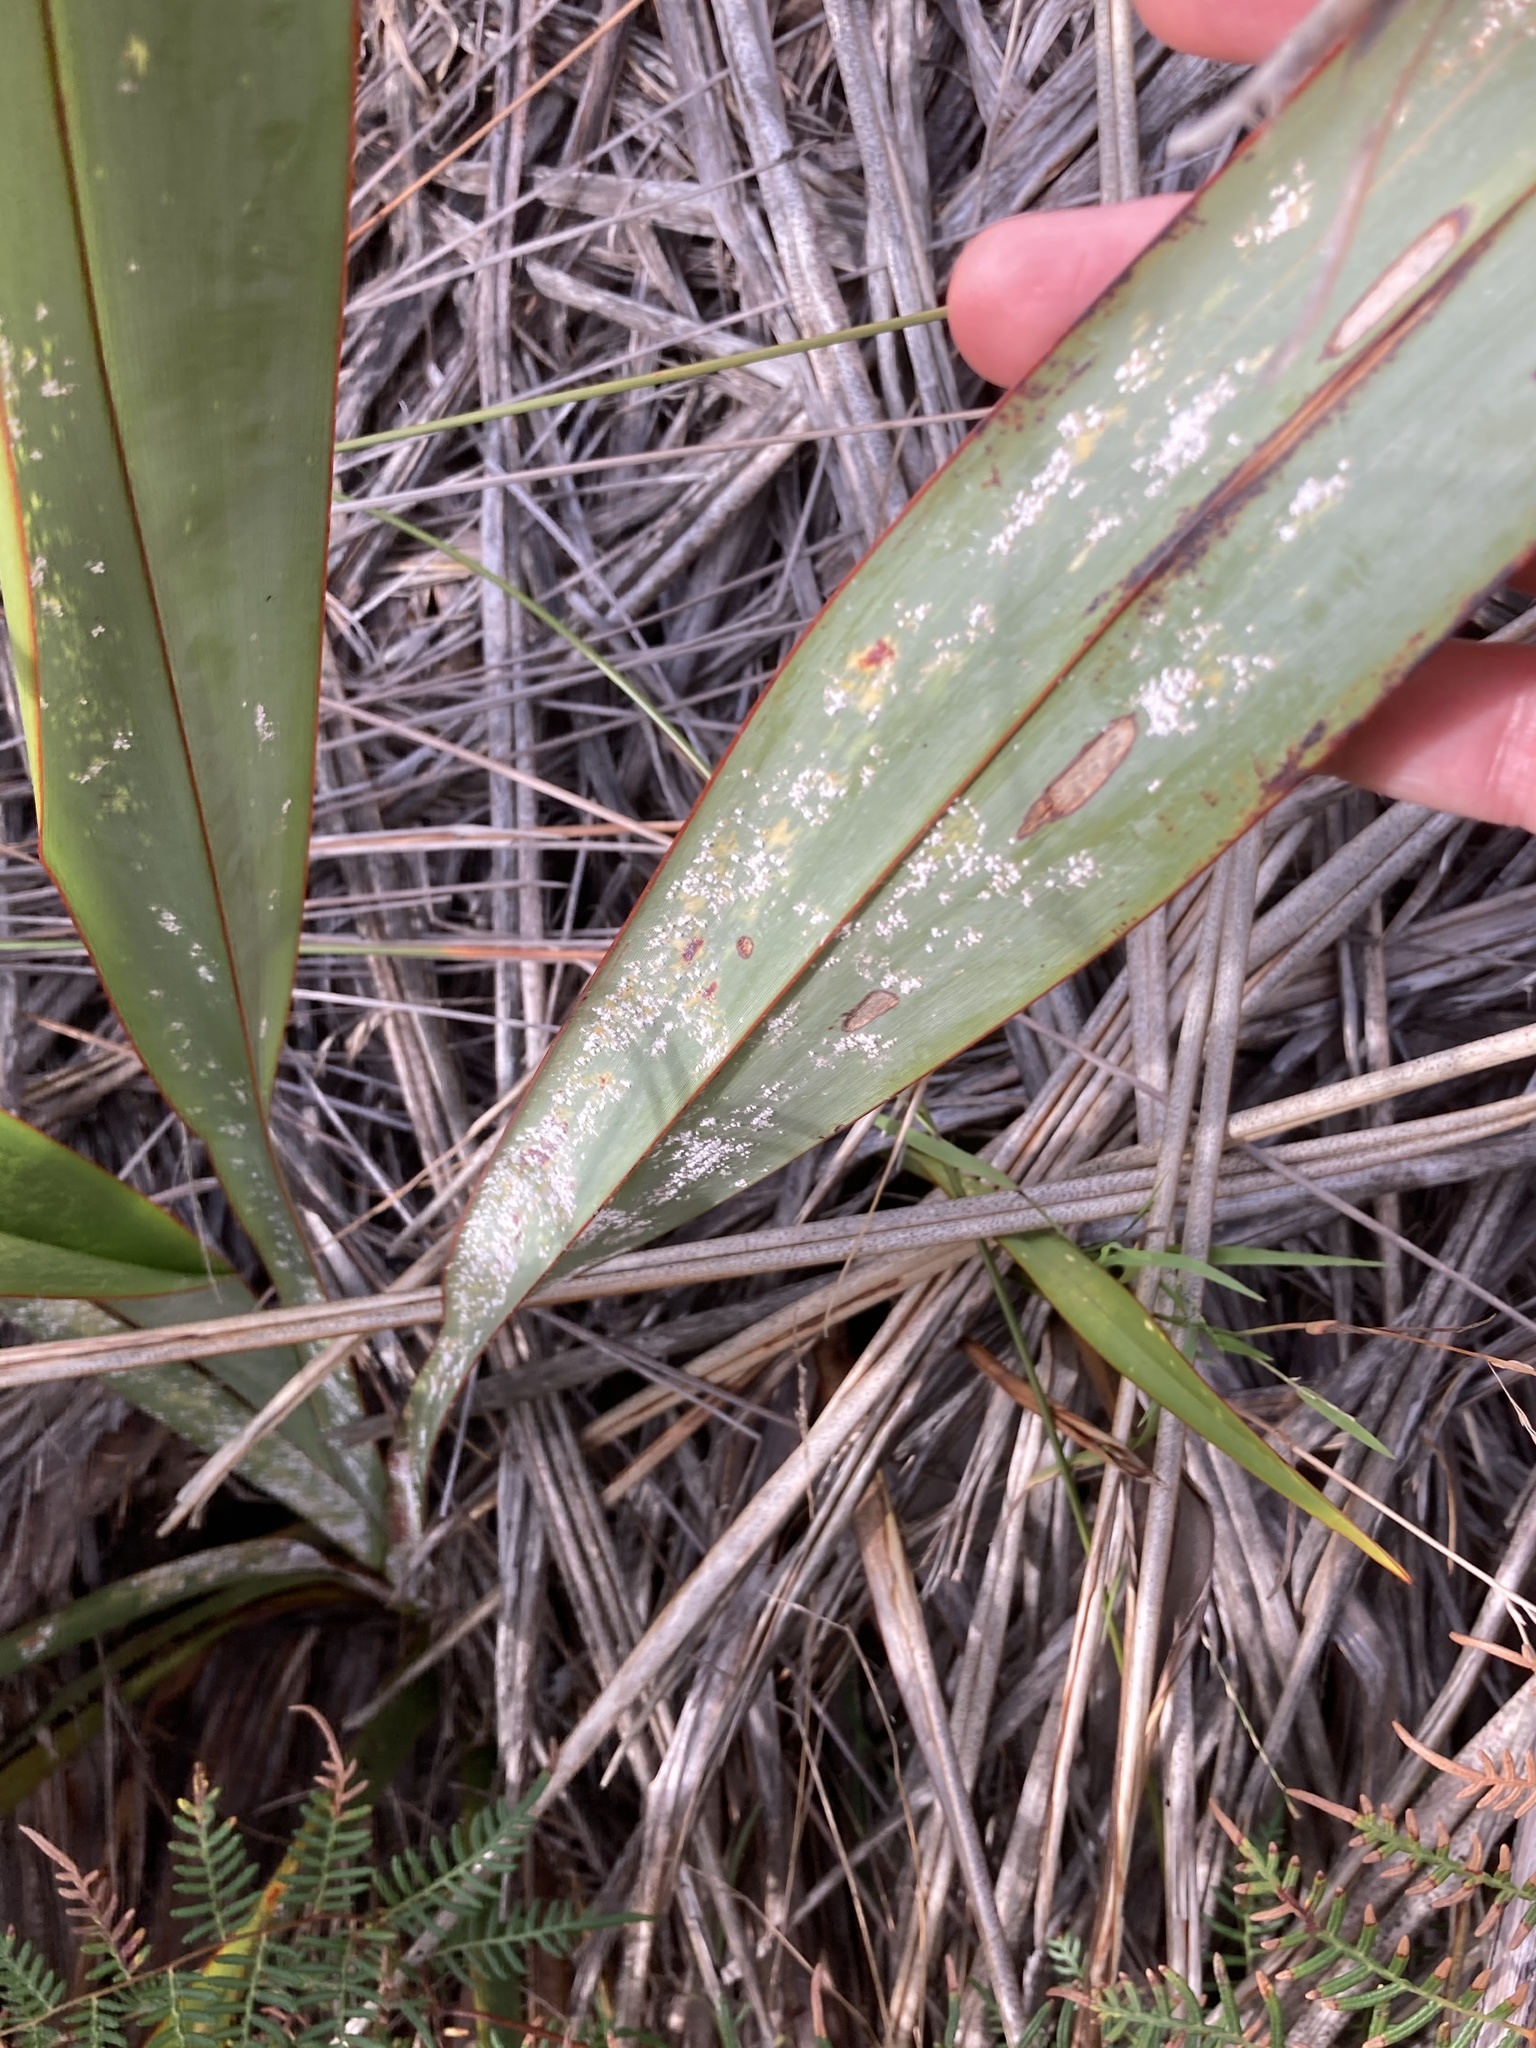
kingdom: Animalia
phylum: Arthropoda
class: Insecta
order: Hemiptera
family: Diaspididae
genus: Poliaspis
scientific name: Poliaspis floccosa
